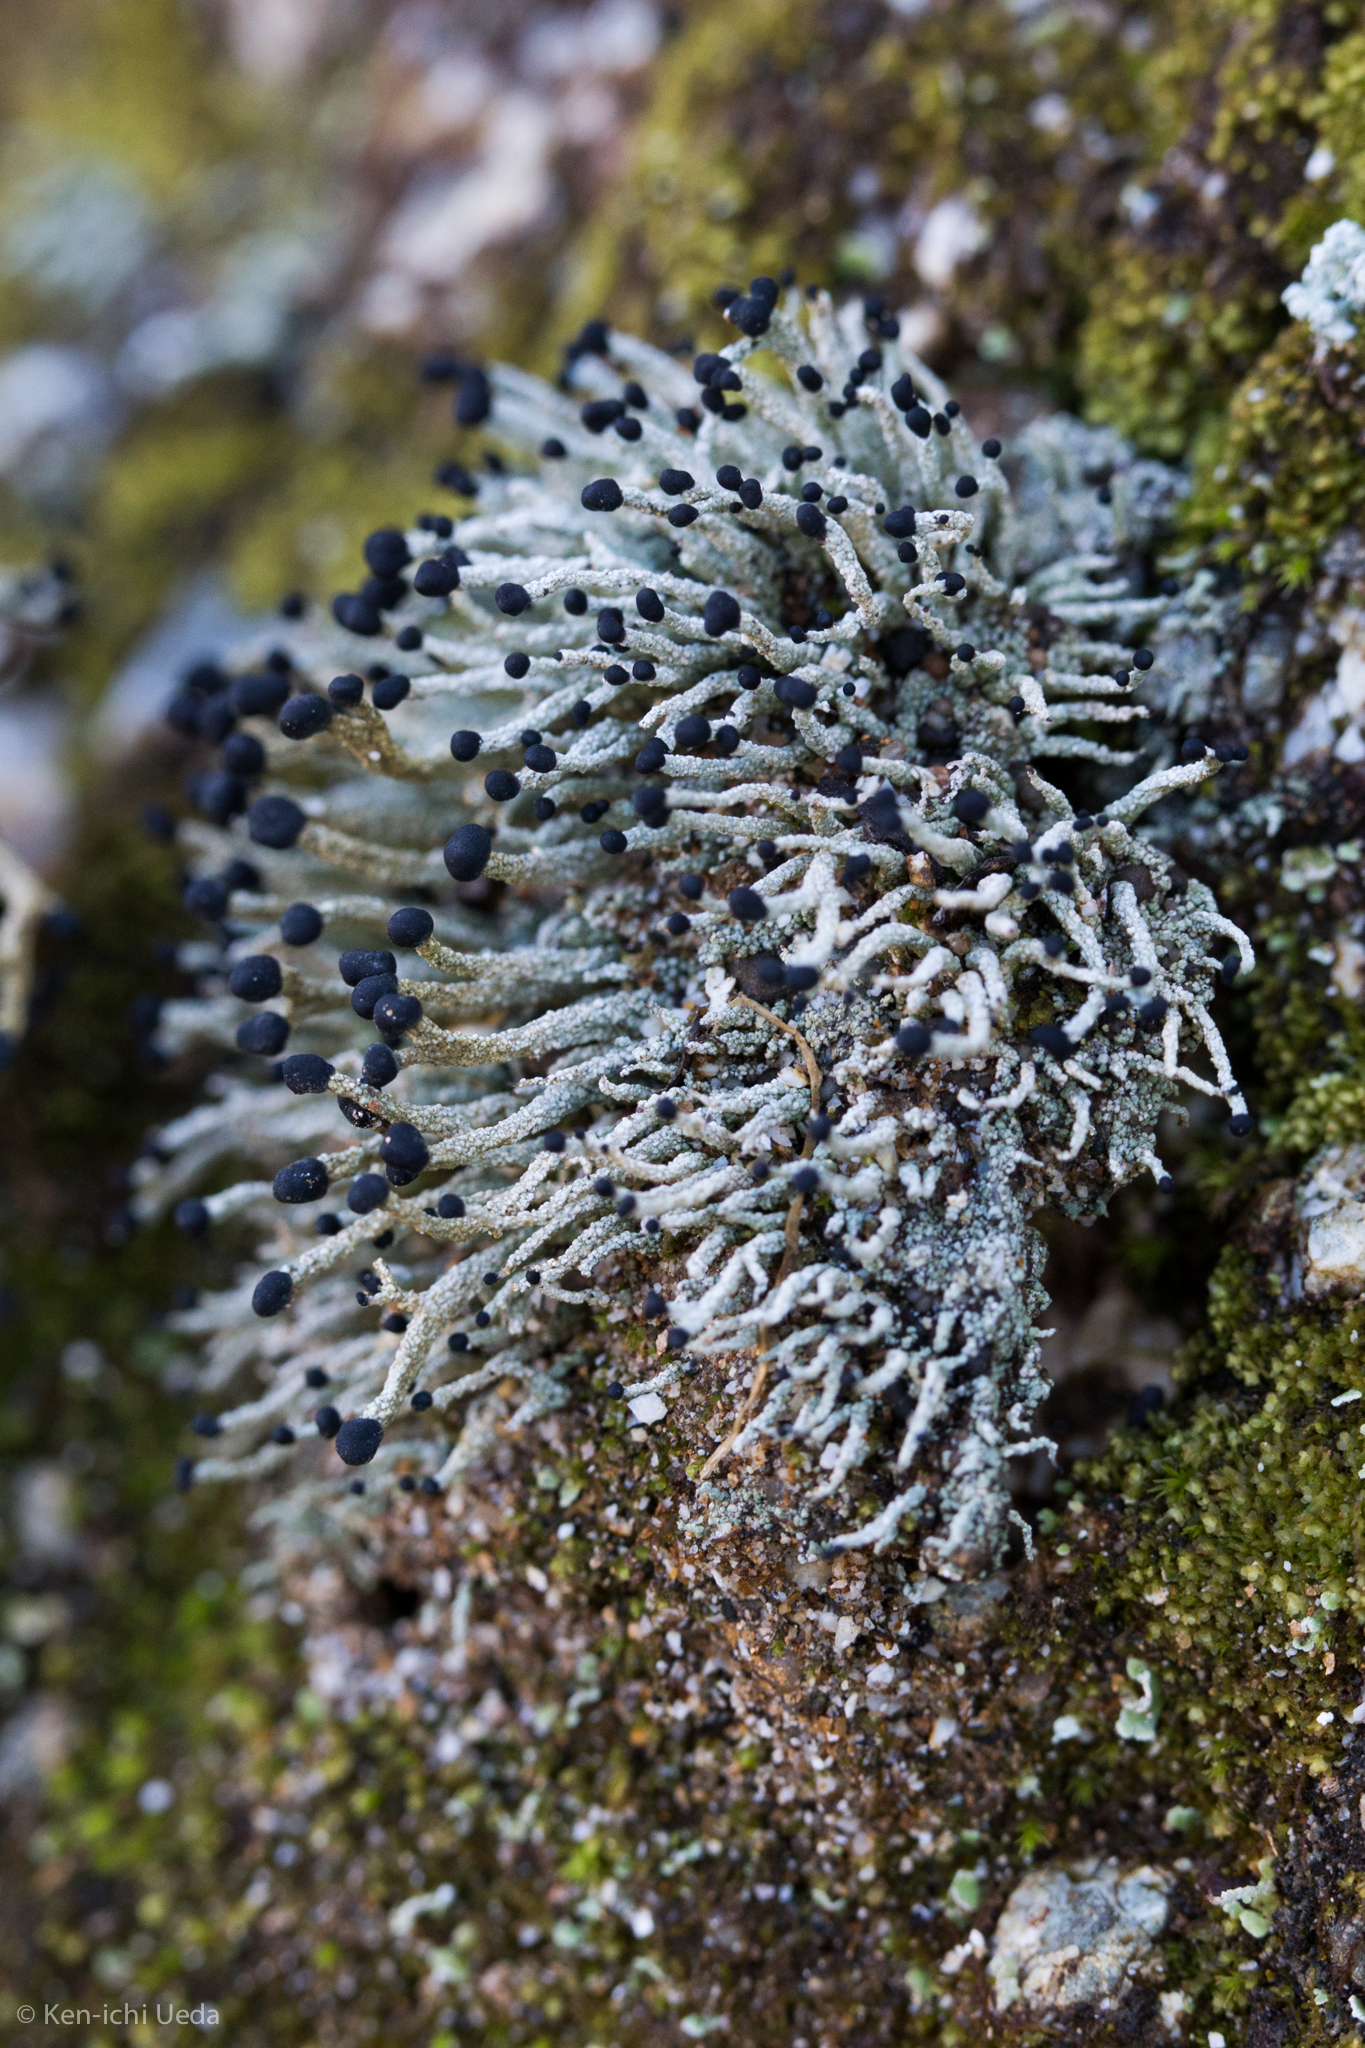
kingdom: Fungi
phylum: Ascomycota
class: Lecanoromycetes
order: Lecanorales
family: Cladoniaceae
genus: Pilophorus
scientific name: Pilophorus acicularis
